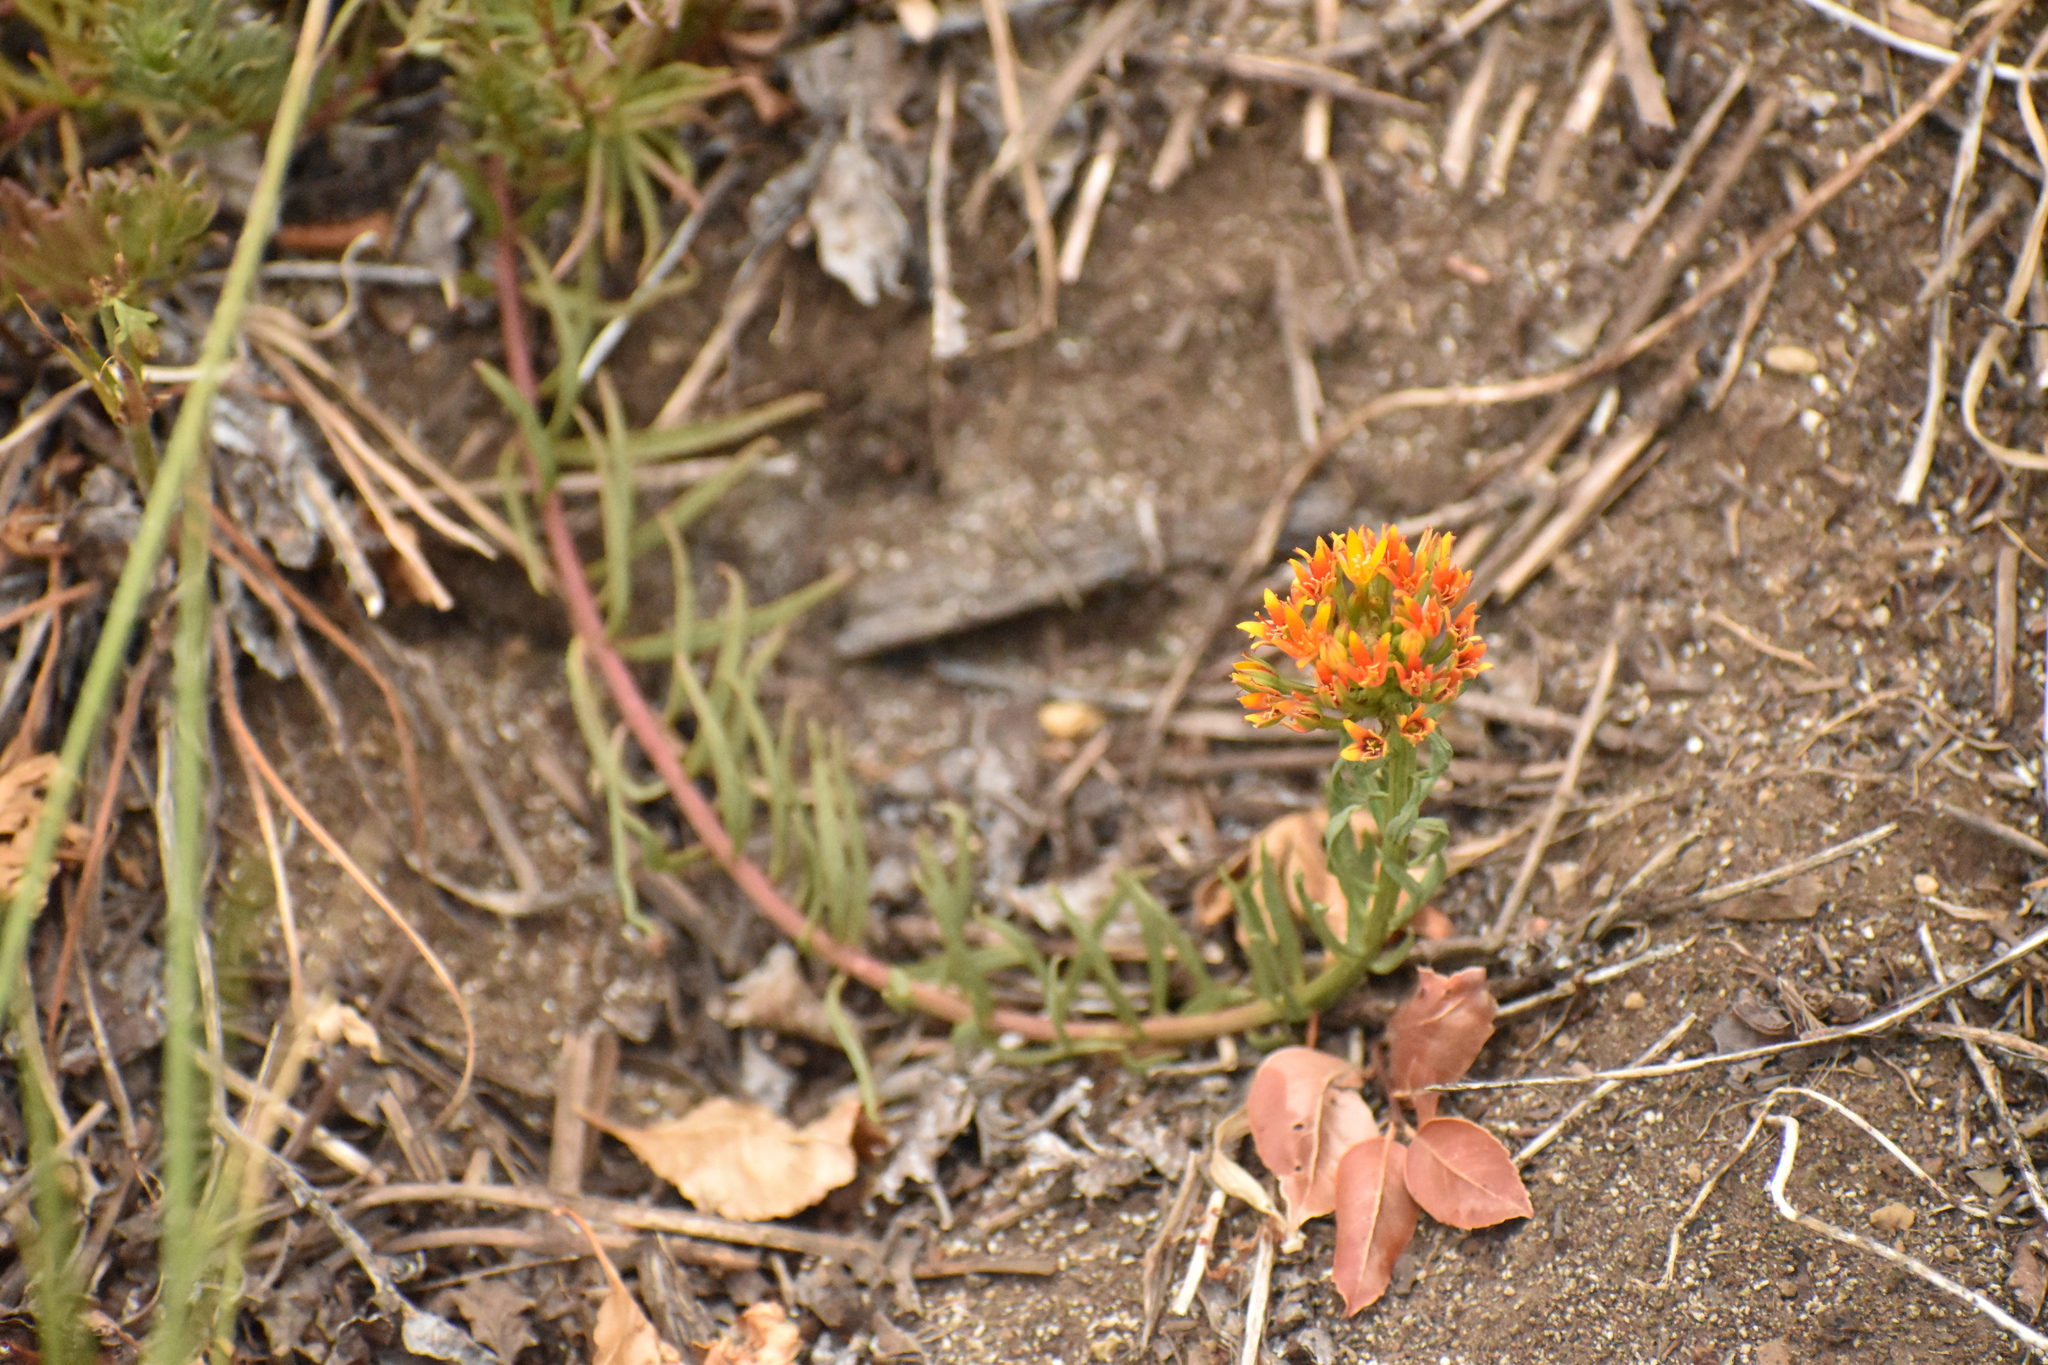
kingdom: Plantae
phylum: Tracheophyta
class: Magnoliopsida
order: Santalales
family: Schoepfiaceae
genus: Quinchamalium
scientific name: Quinchamalium chilense
